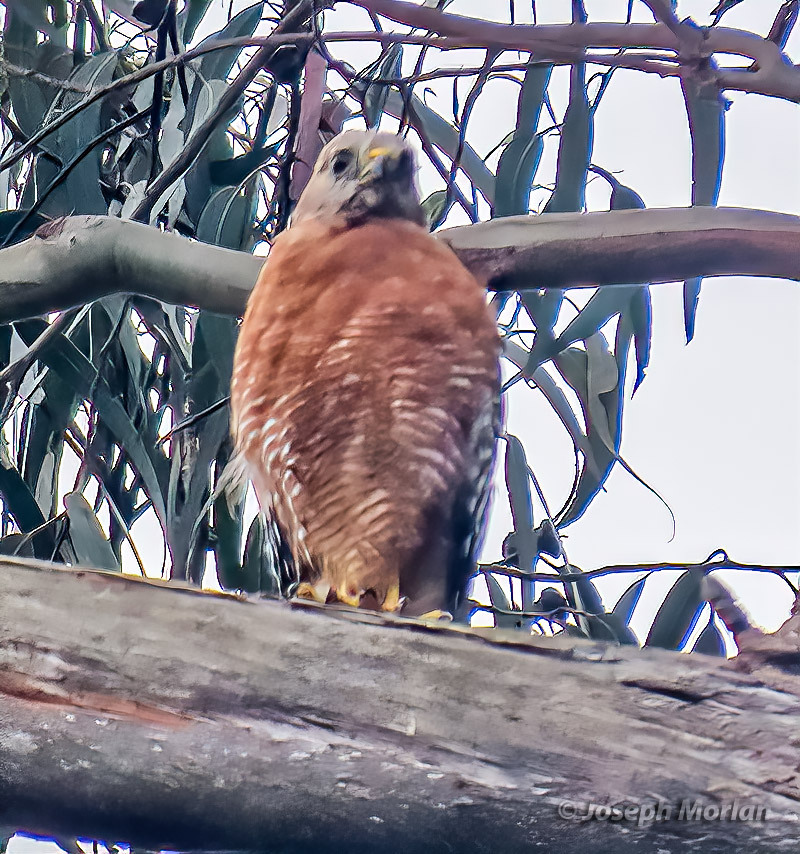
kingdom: Animalia
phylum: Chordata
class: Aves
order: Accipitriformes
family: Accipitridae
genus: Buteo
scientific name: Buteo lineatus
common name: Red-shouldered hawk
